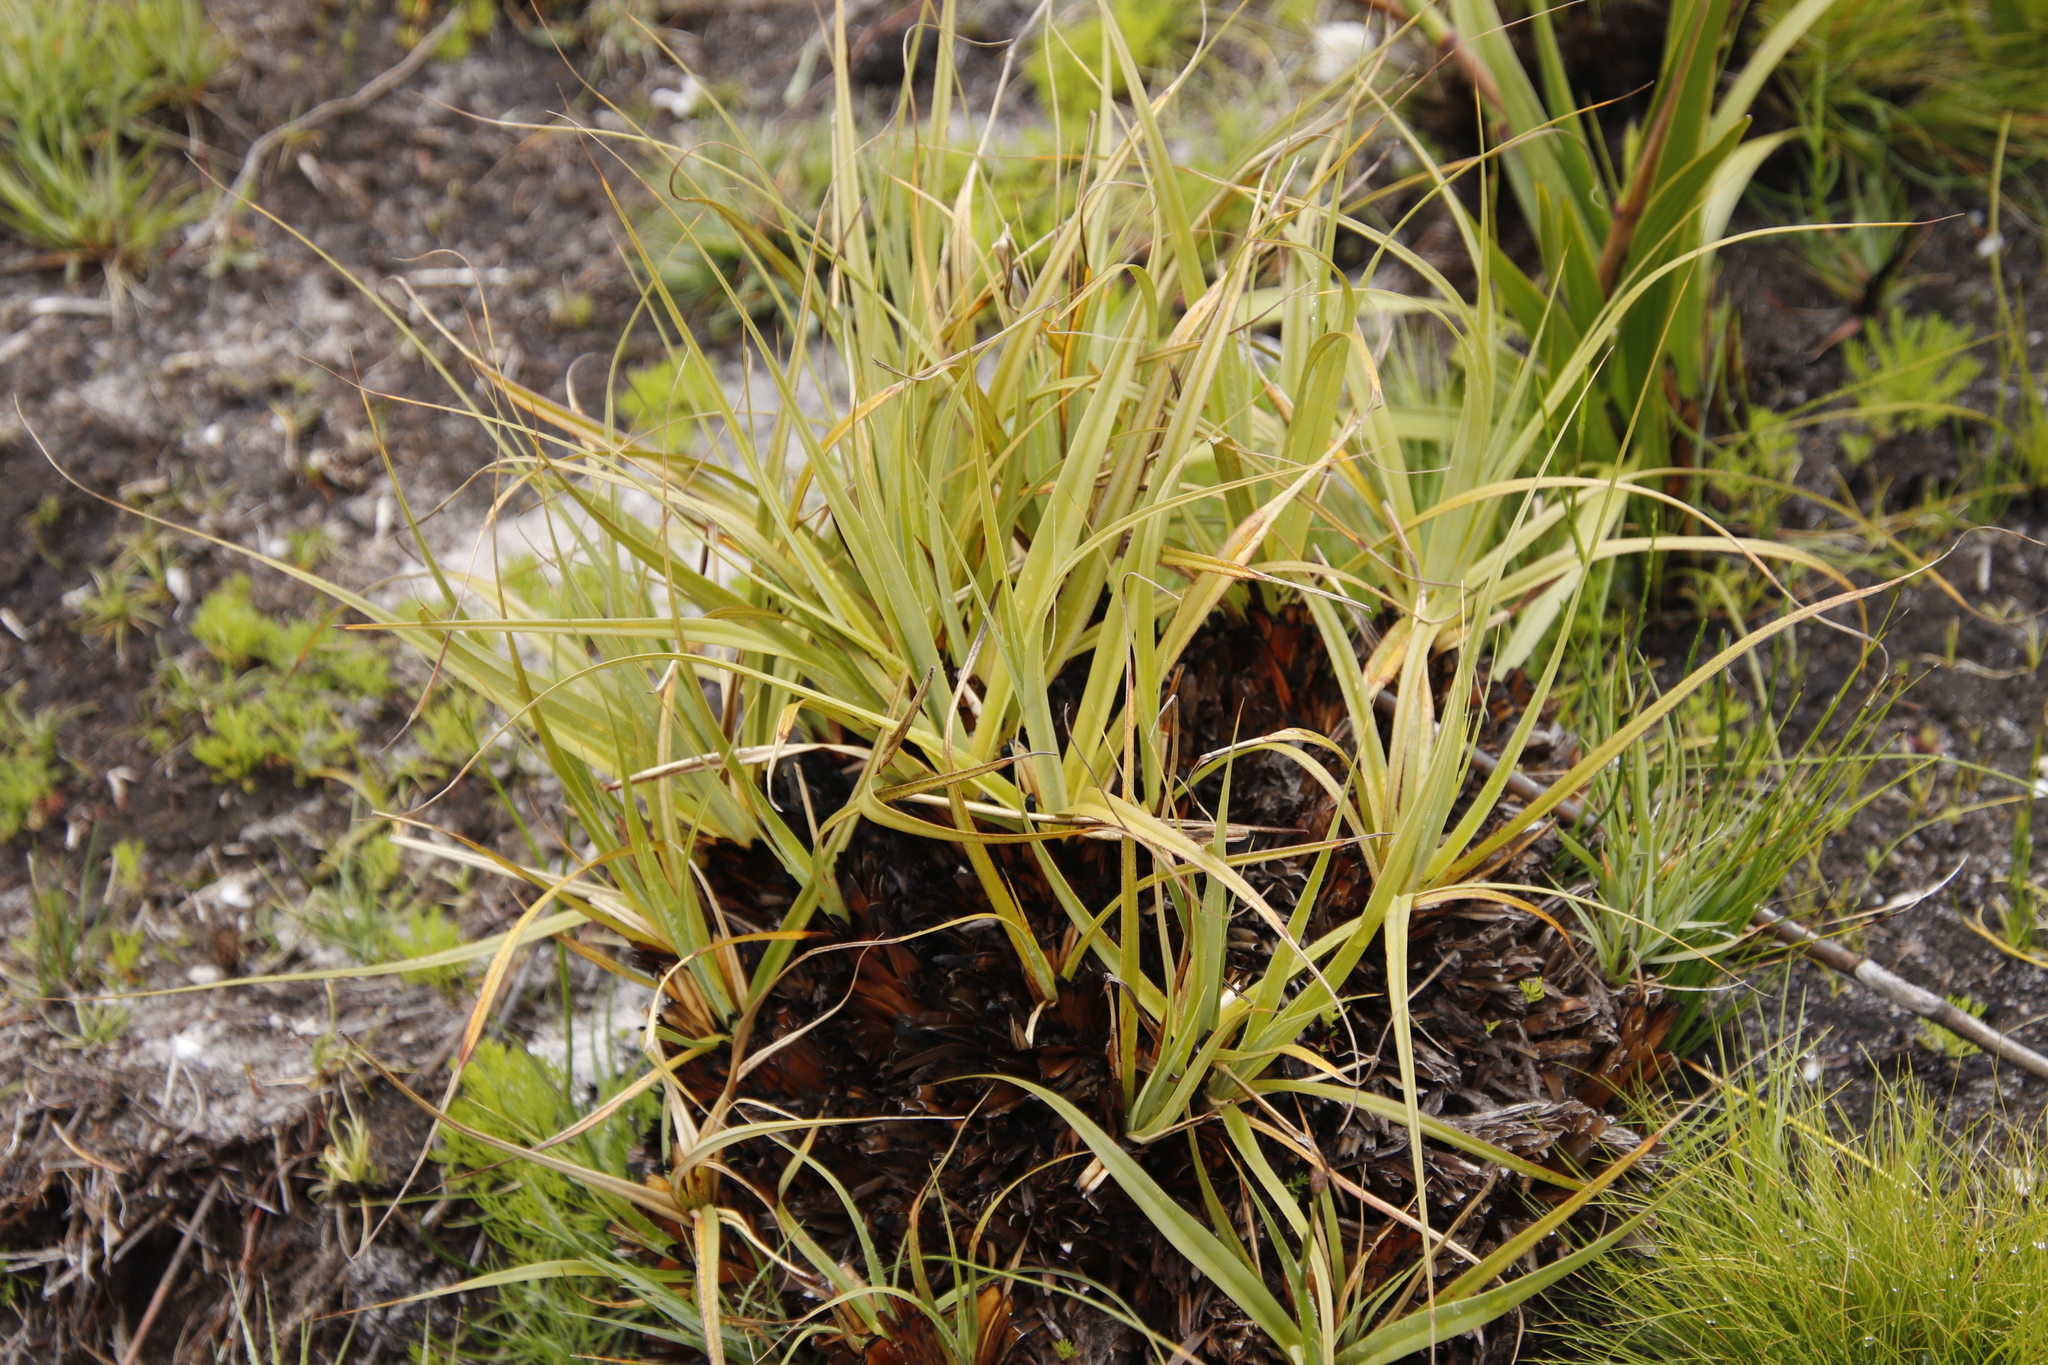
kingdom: Plantae
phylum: Tracheophyta
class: Liliopsida
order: Poales
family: Cyperaceae
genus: Tetraria
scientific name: Tetraria thermalis
